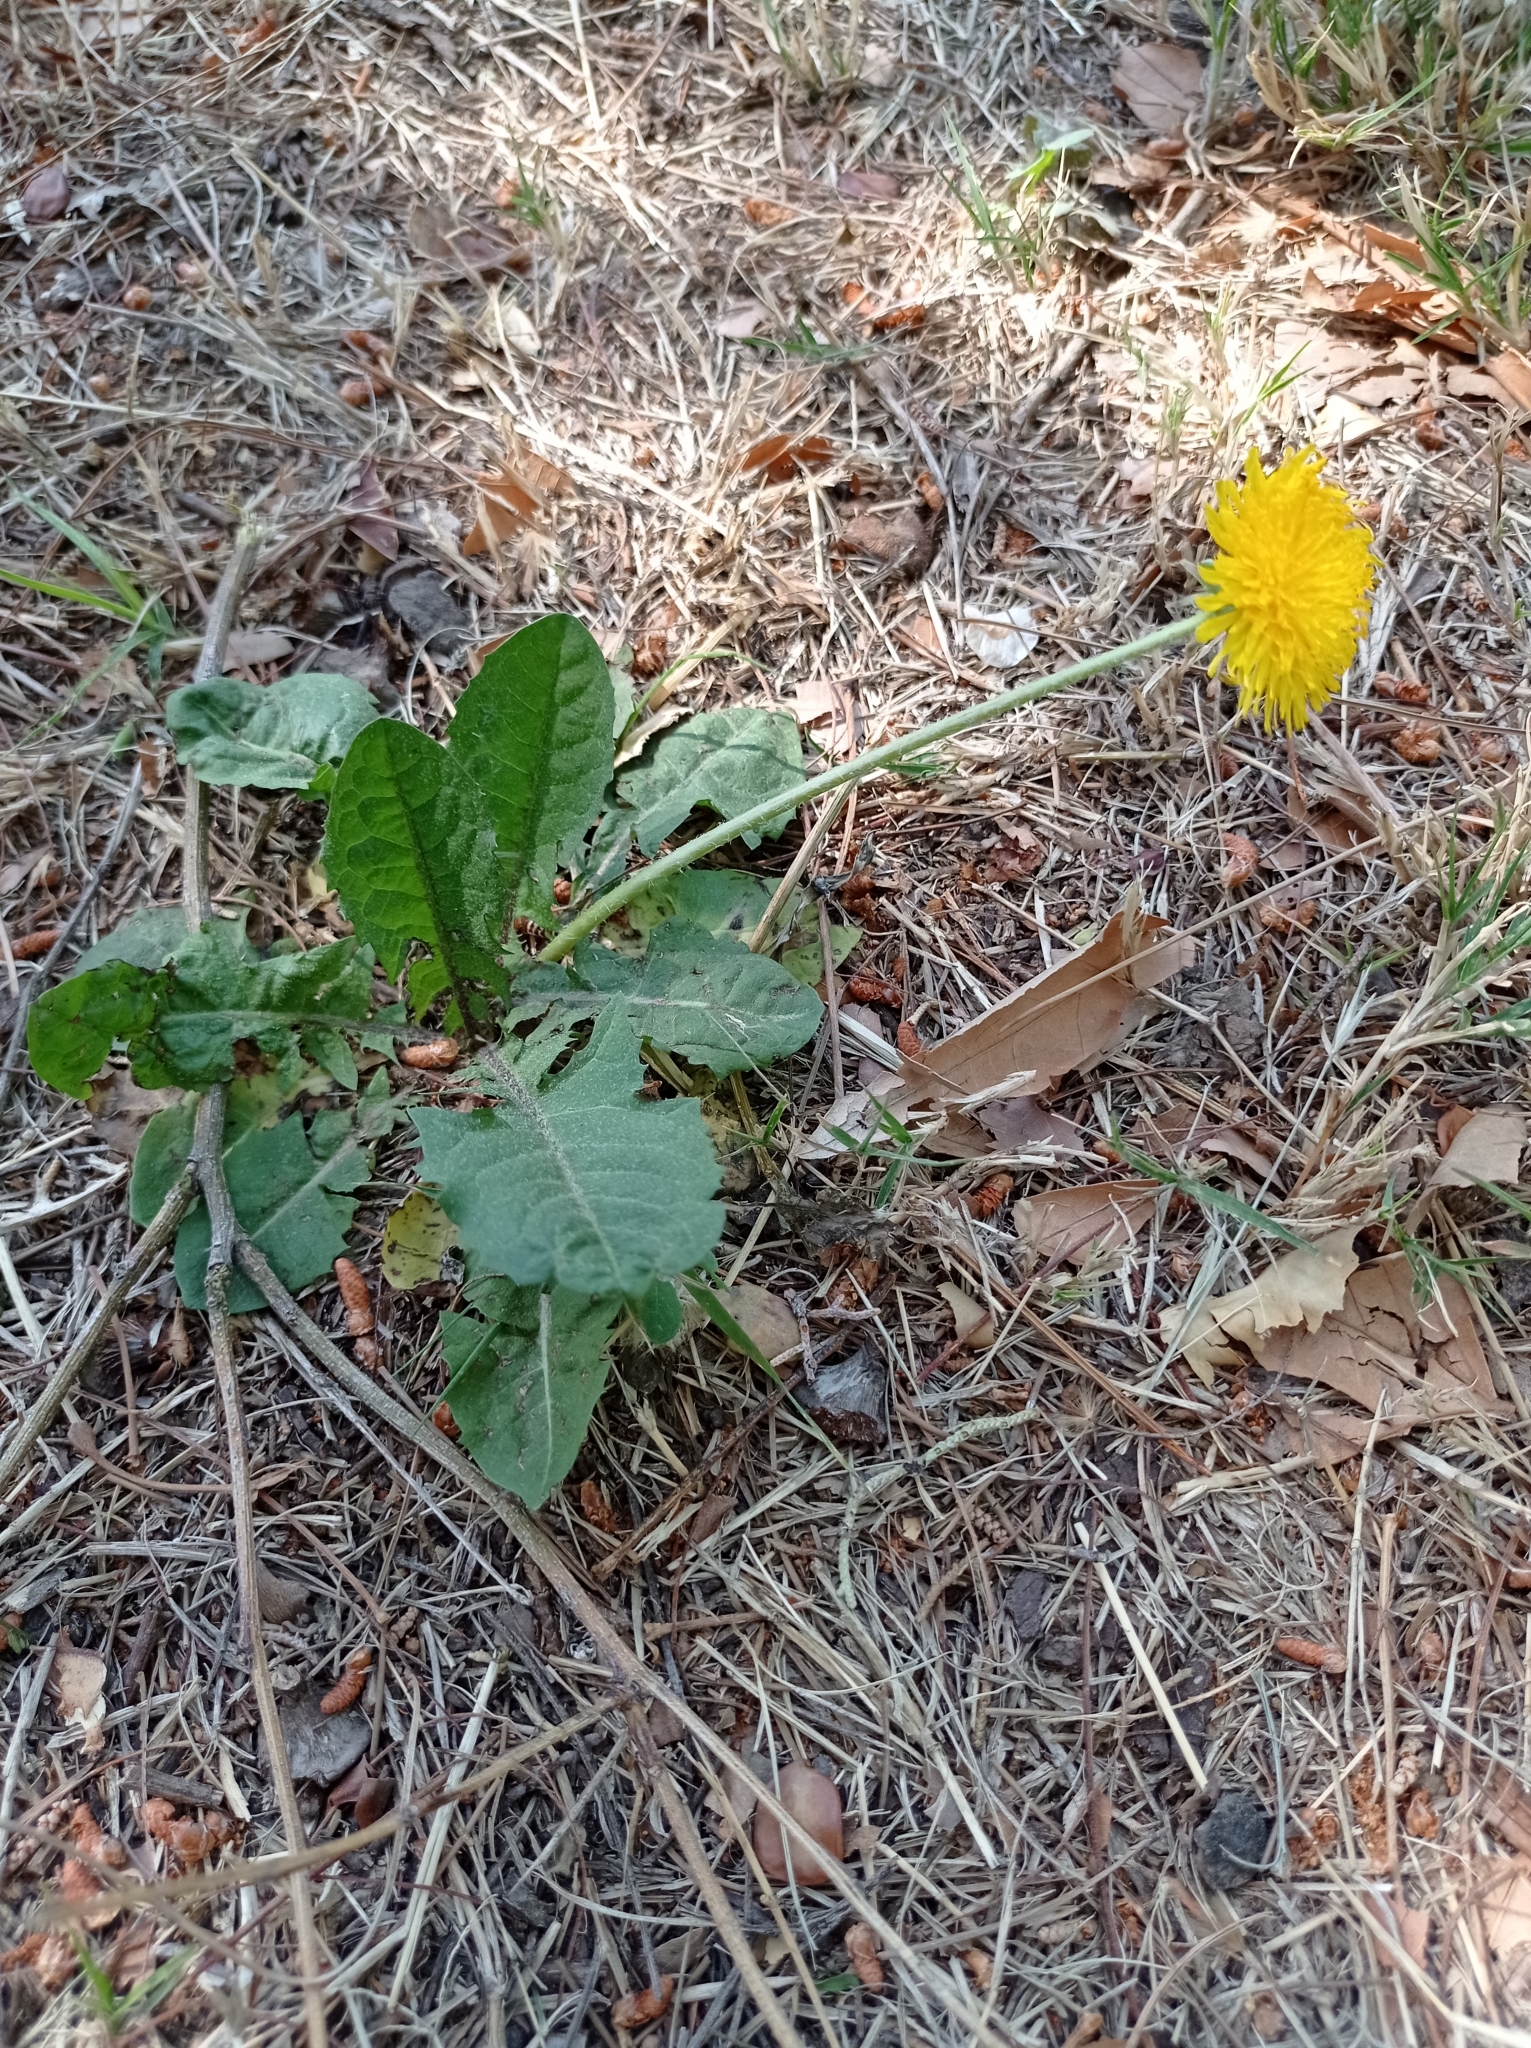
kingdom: Plantae
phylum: Tracheophyta
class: Magnoliopsida
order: Asterales
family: Asteraceae
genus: Taraxacum
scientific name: Taraxacum officinale
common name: Common dandelion
